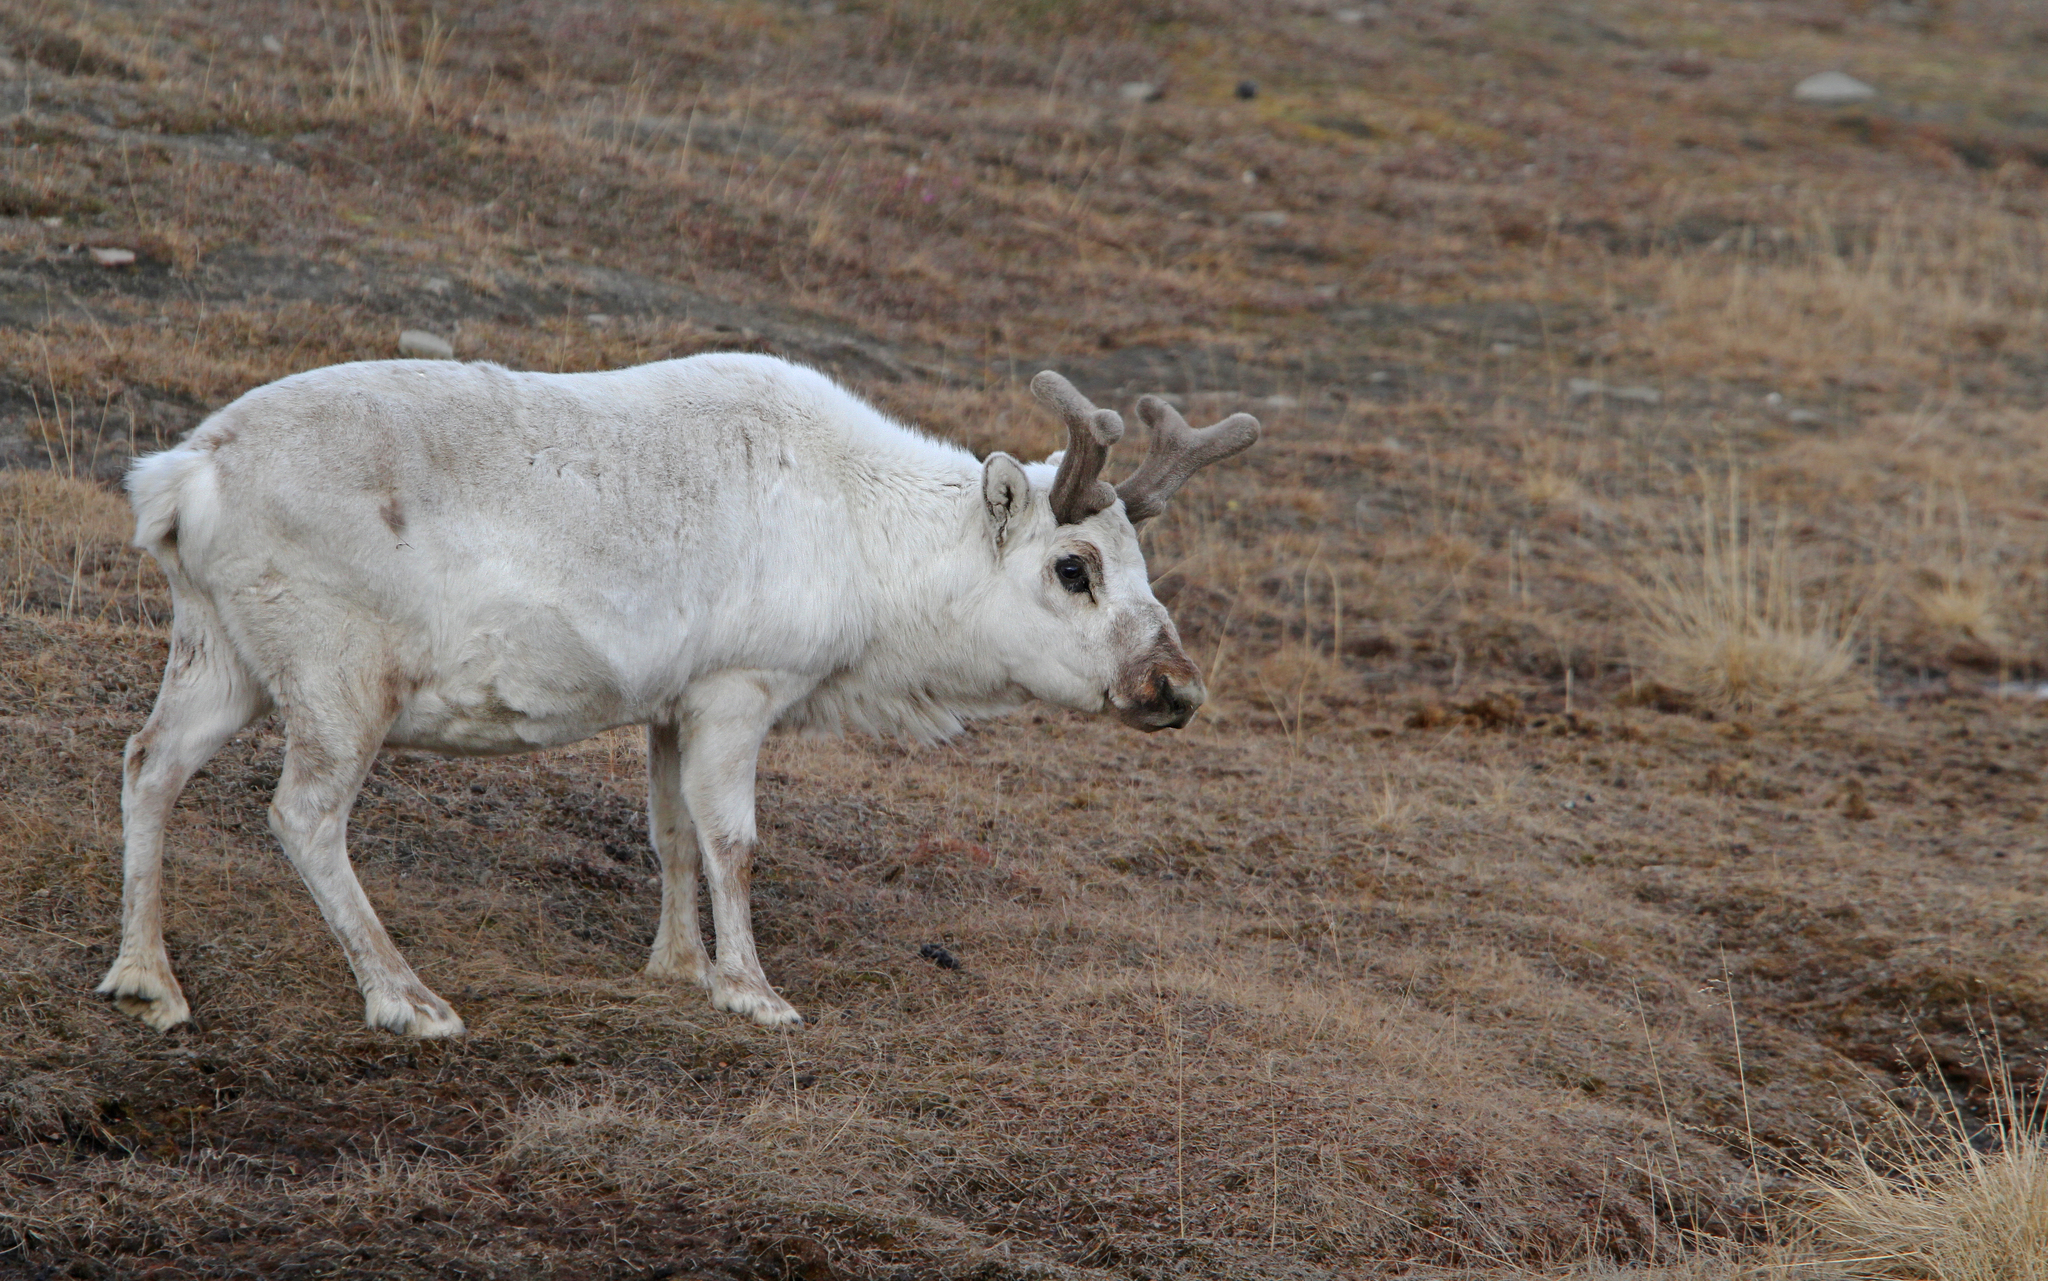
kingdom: Animalia
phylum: Chordata
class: Mammalia
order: Artiodactyla
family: Cervidae
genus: Rangifer
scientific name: Rangifer tarandus
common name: Reindeer
